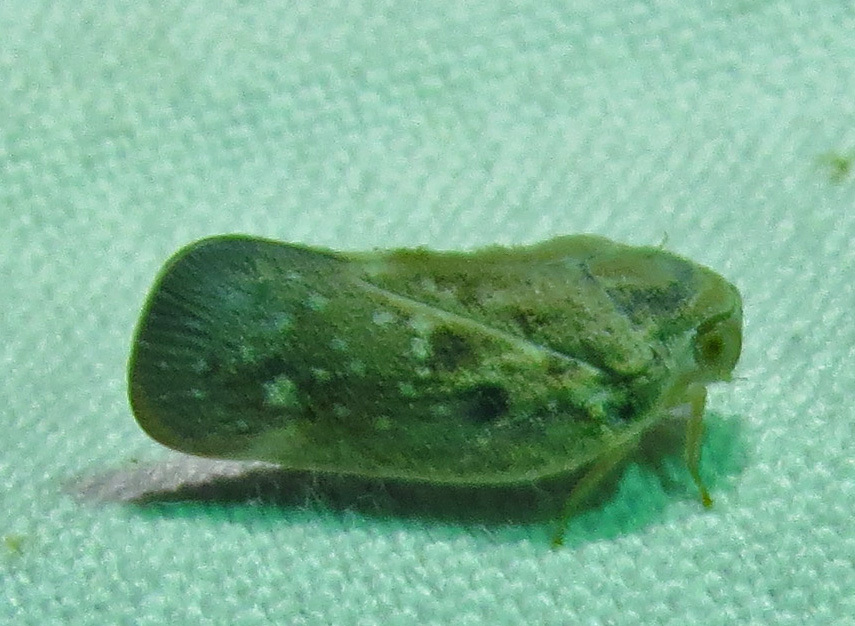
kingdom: Animalia
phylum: Arthropoda
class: Insecta
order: Hemiptera
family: Flatidae
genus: Metcalfa
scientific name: Metcalfa pruinosa
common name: Citrus flatid planthopper
